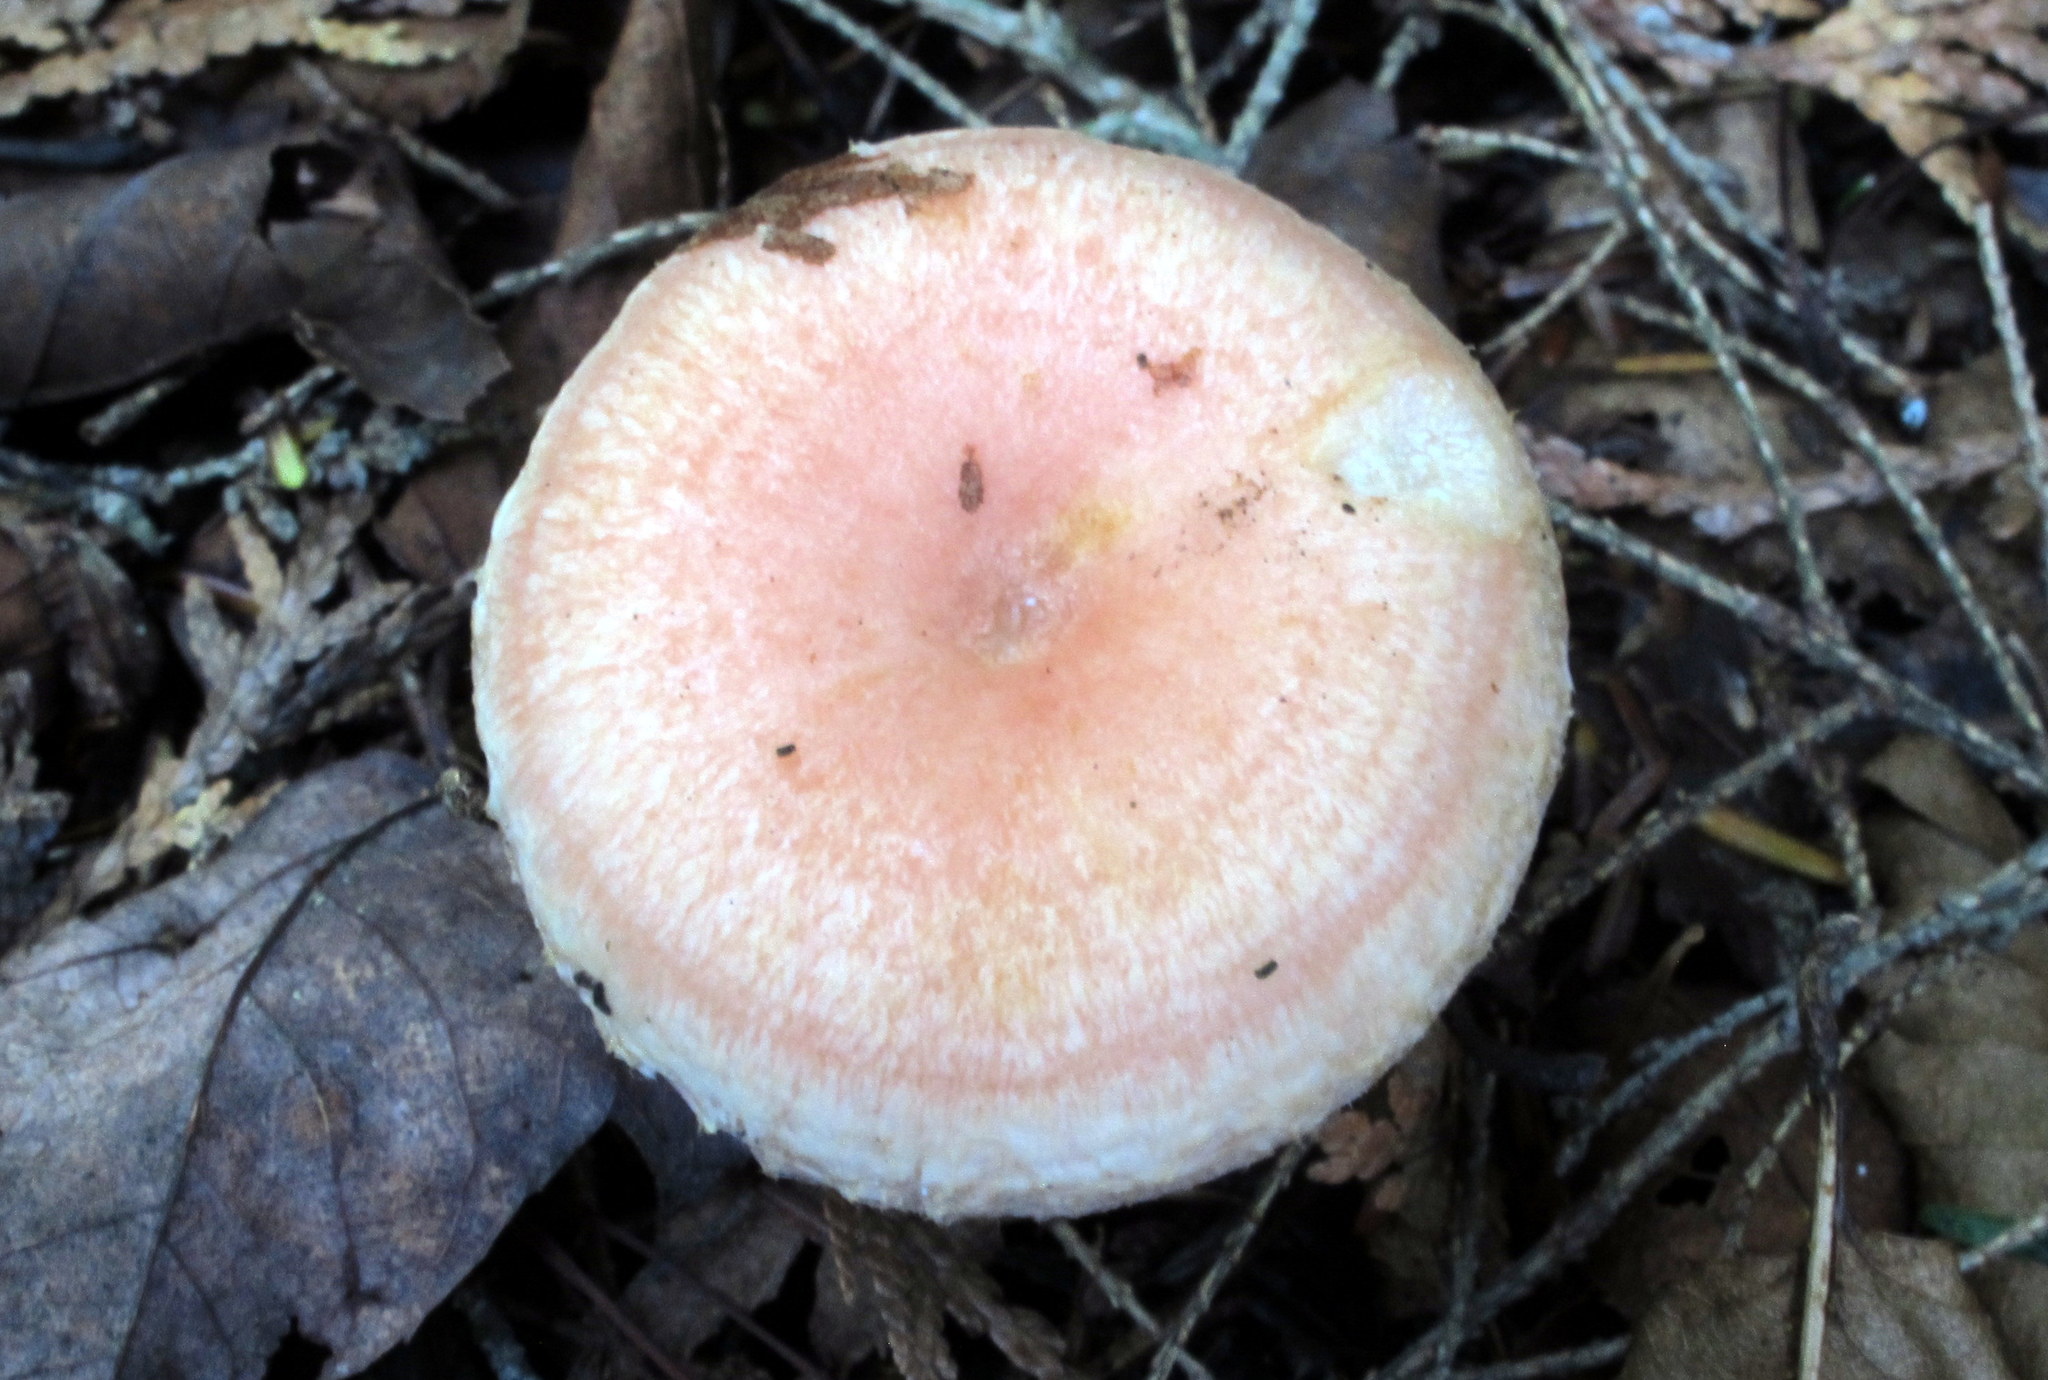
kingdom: Fungi
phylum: Basidiomycota
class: Agaricomycetes
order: Russulales
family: Russulaceae
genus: Lactarius
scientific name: Lactarius torminosus
